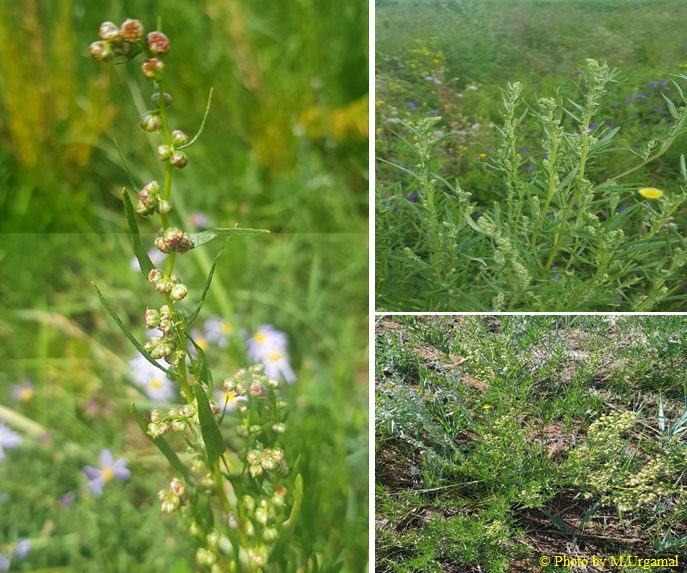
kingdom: Plantae
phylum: Tracheophyta
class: Magnoliopsida
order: Asterales
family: Asteraceae
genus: Artemisia
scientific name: Artemisia dracunculus
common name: Tarragon
